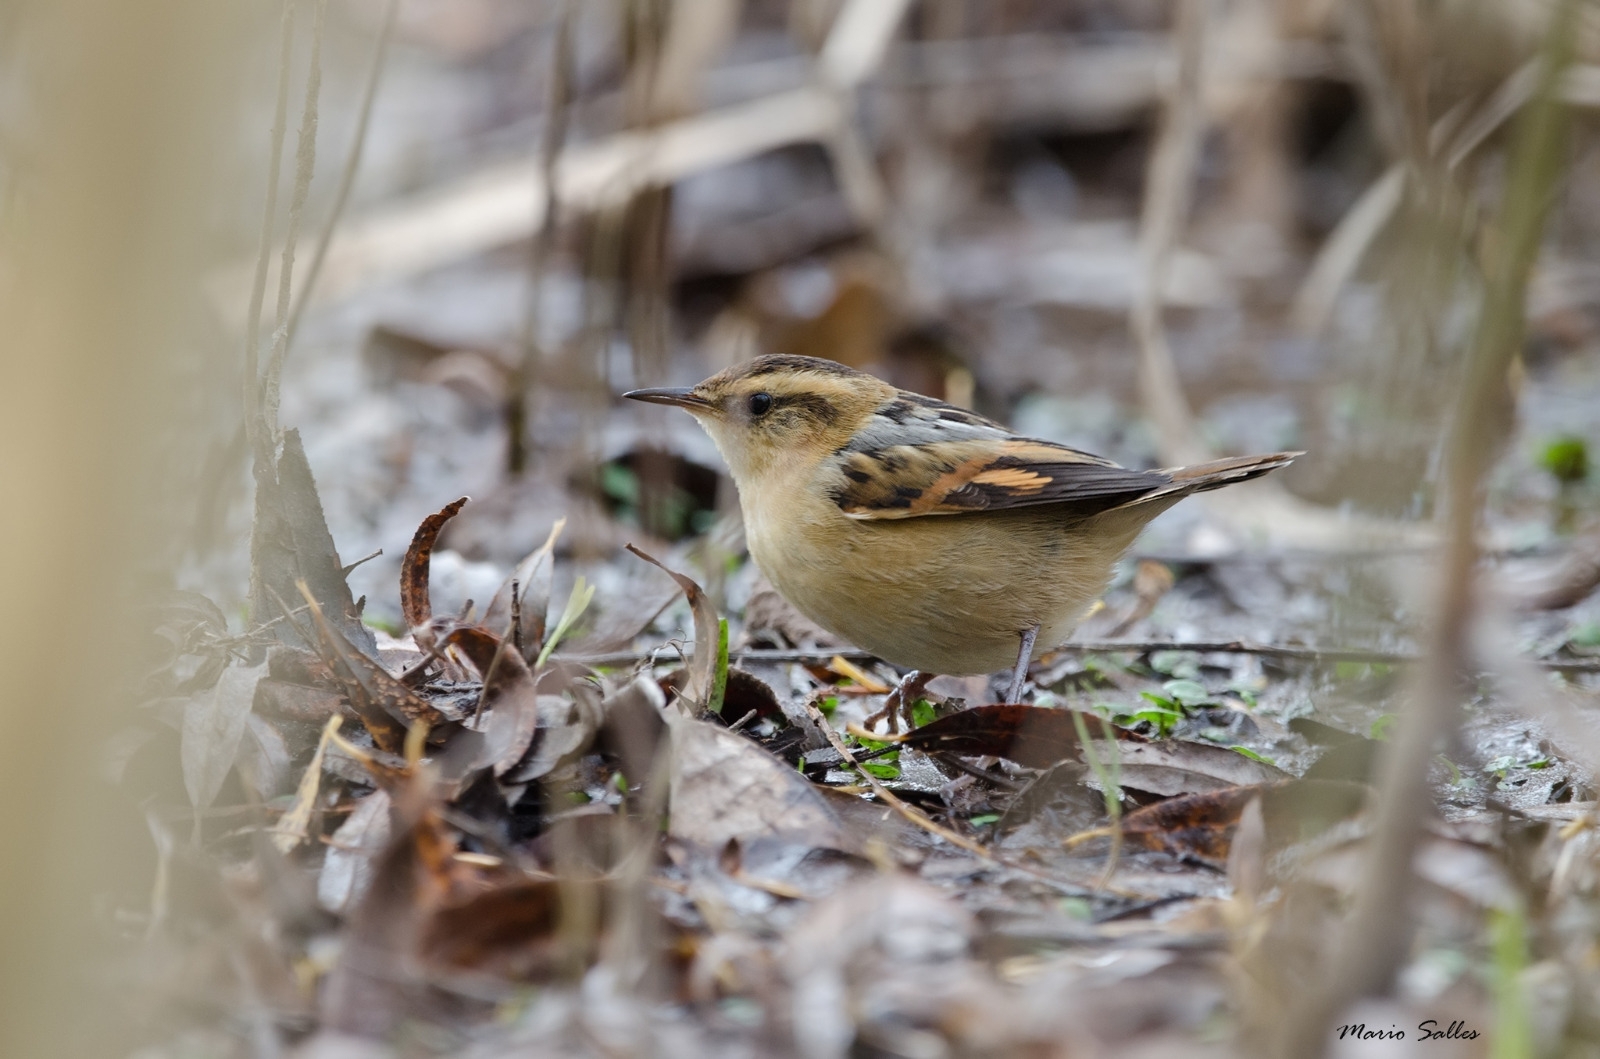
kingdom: Animalia
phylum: Chordata
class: Aves
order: Passeriformes
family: Furnariidae
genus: Phleocryptes
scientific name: Phleocryptes melanops
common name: Wren-like rushbird
